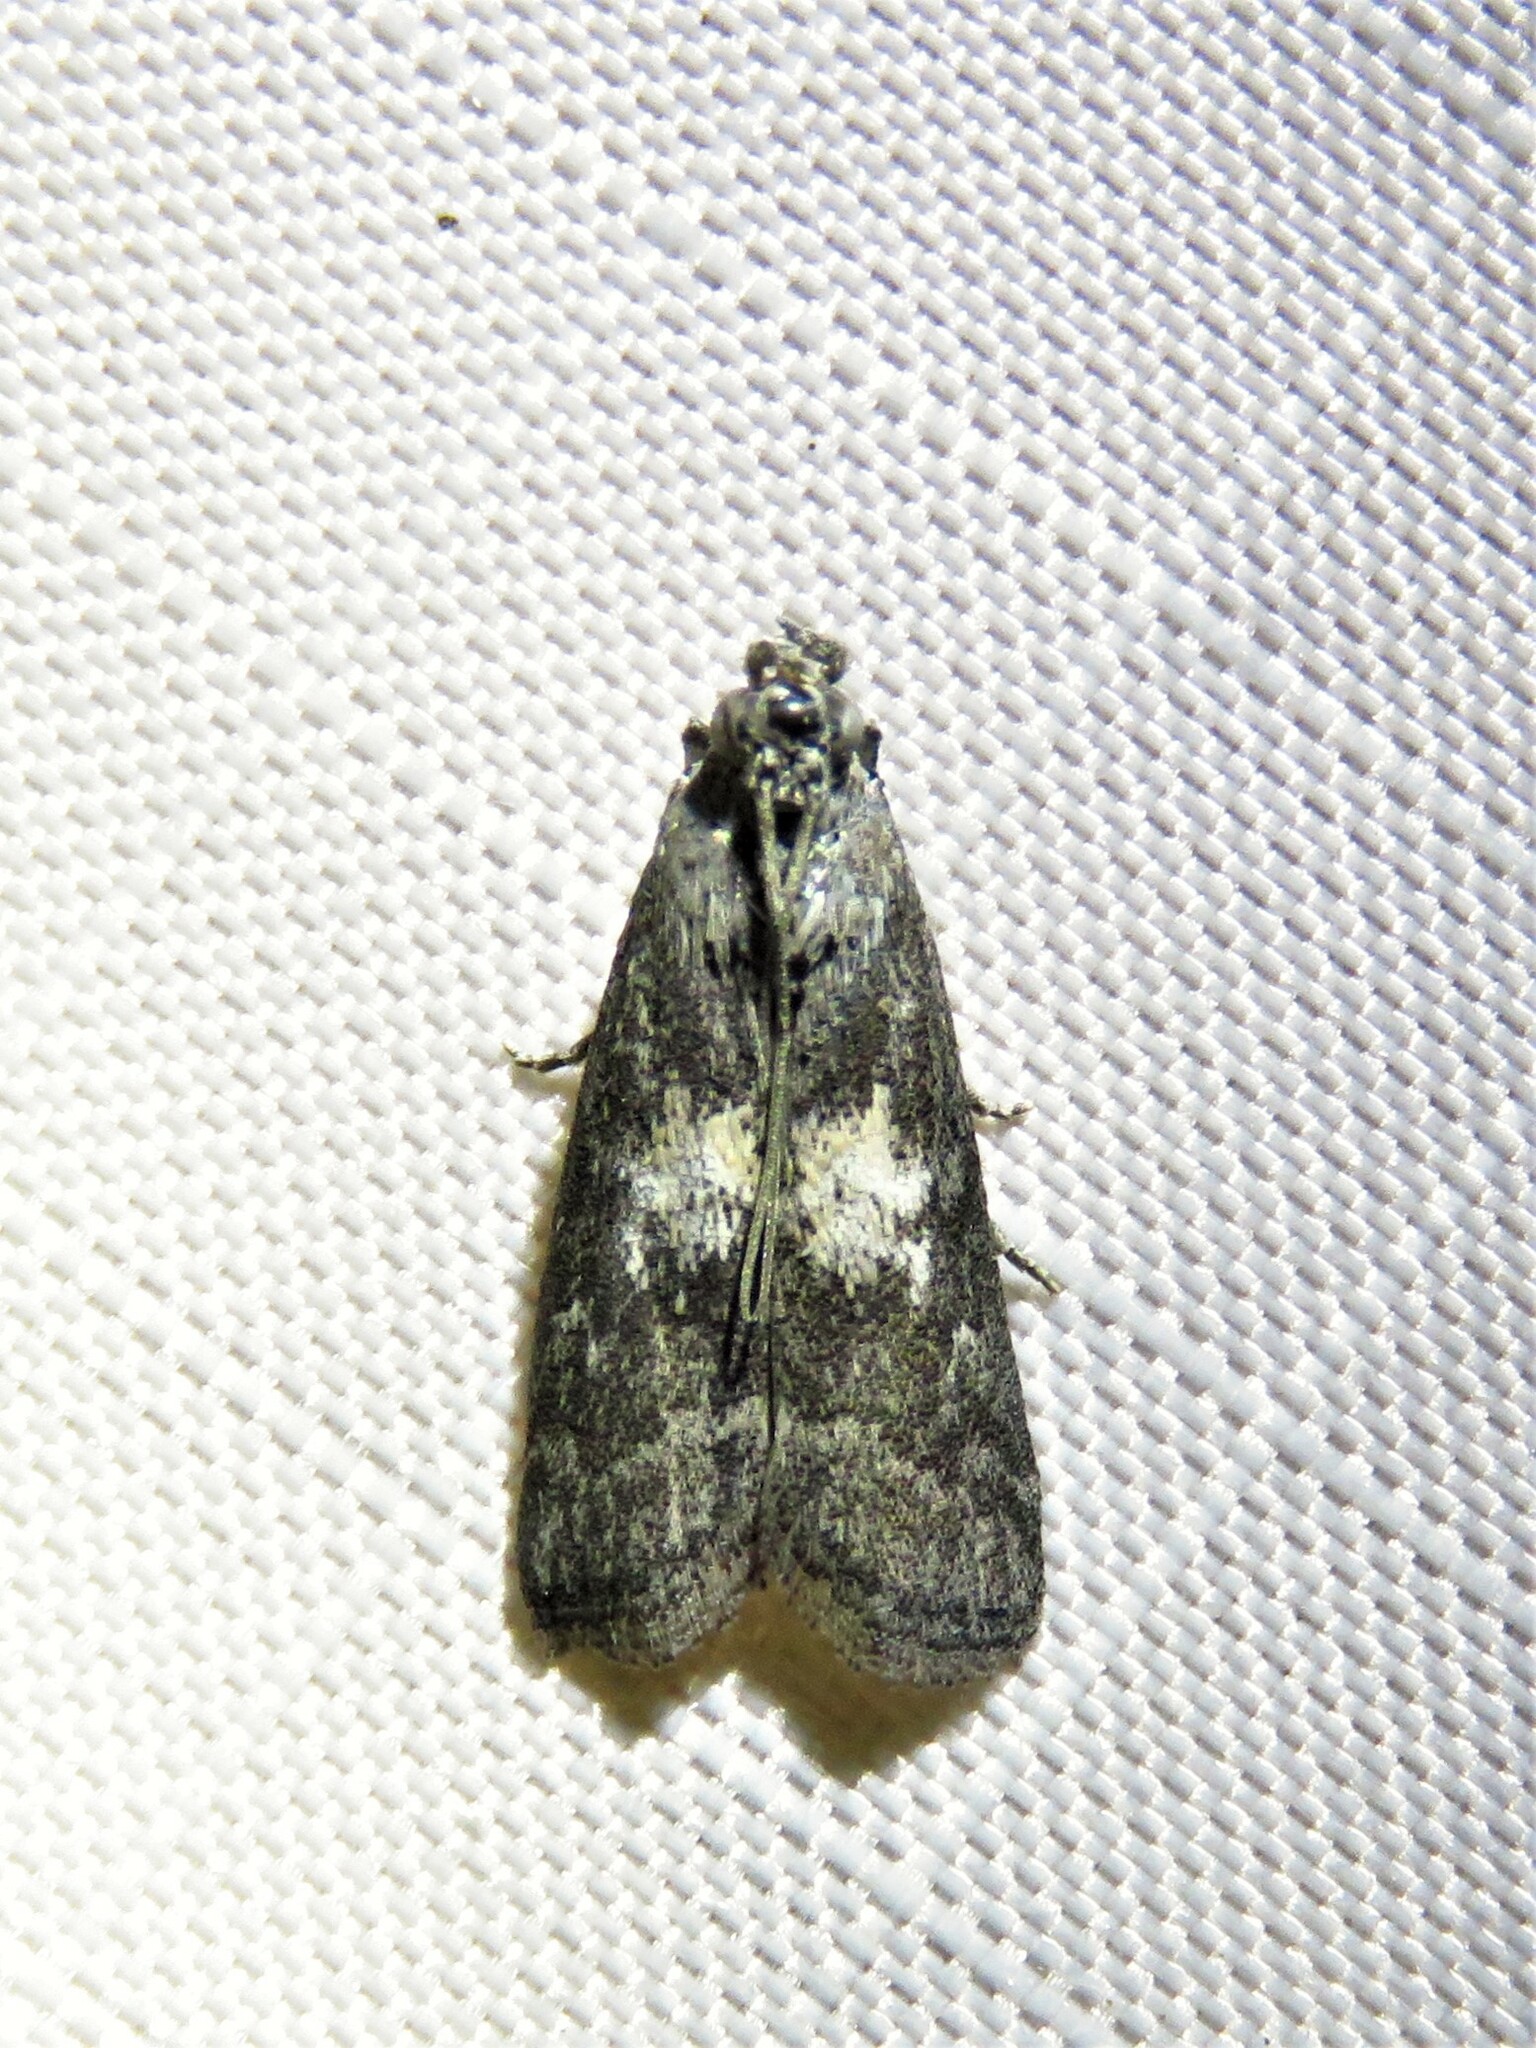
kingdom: Animalia
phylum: Arthropoda
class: Insecta
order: Lepidoptera
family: Pyralidae
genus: Tacoma
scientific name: Tacoma feriella
